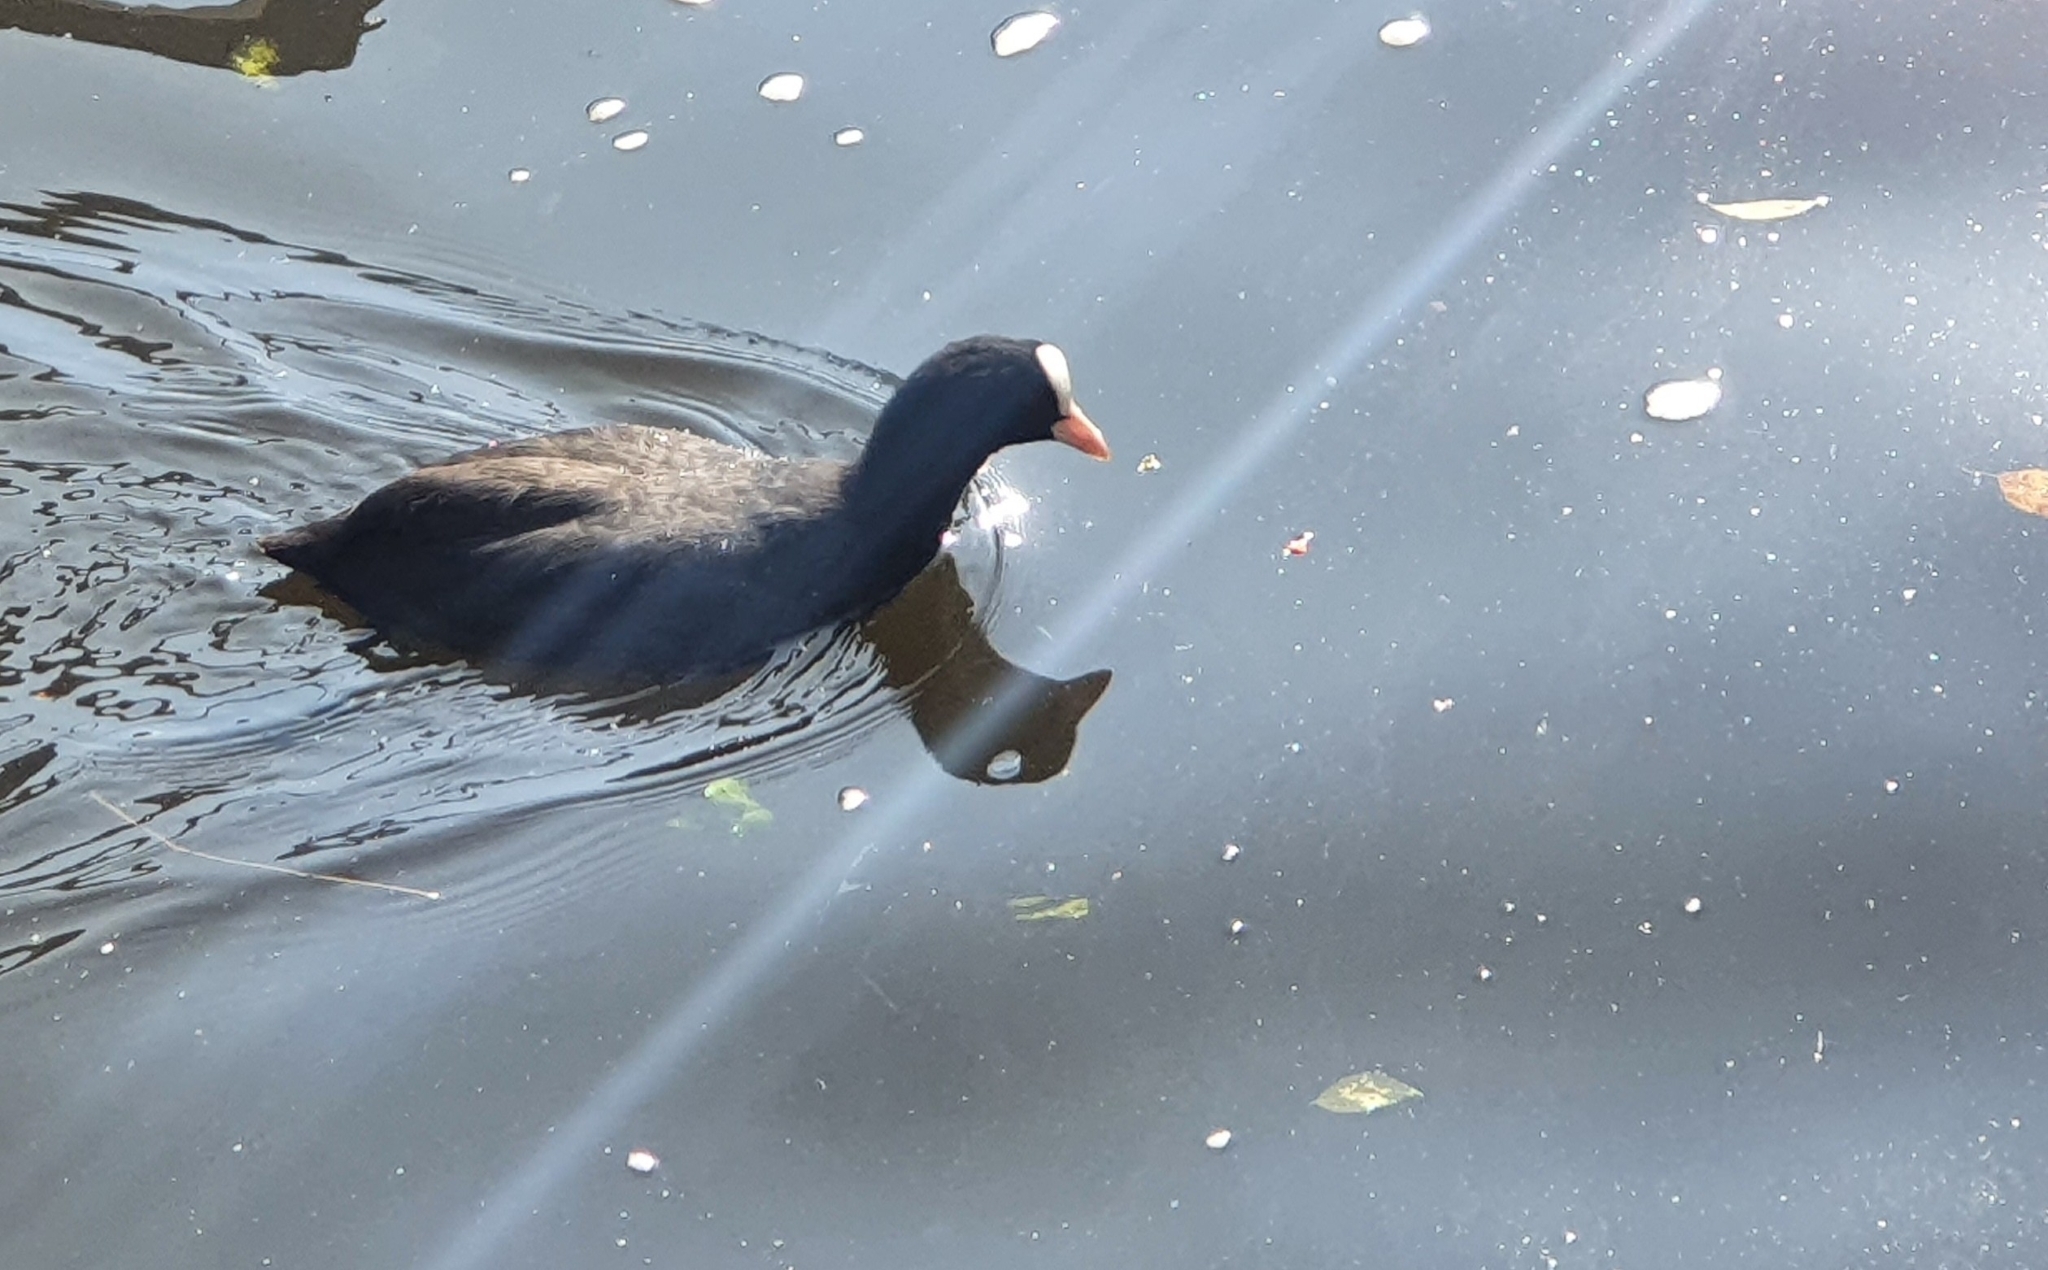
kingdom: Animalia
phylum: Chordata
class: Aves
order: Gruiformes
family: Rallidae
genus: Fulica
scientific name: Fulica atra
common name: Eurasian coot
